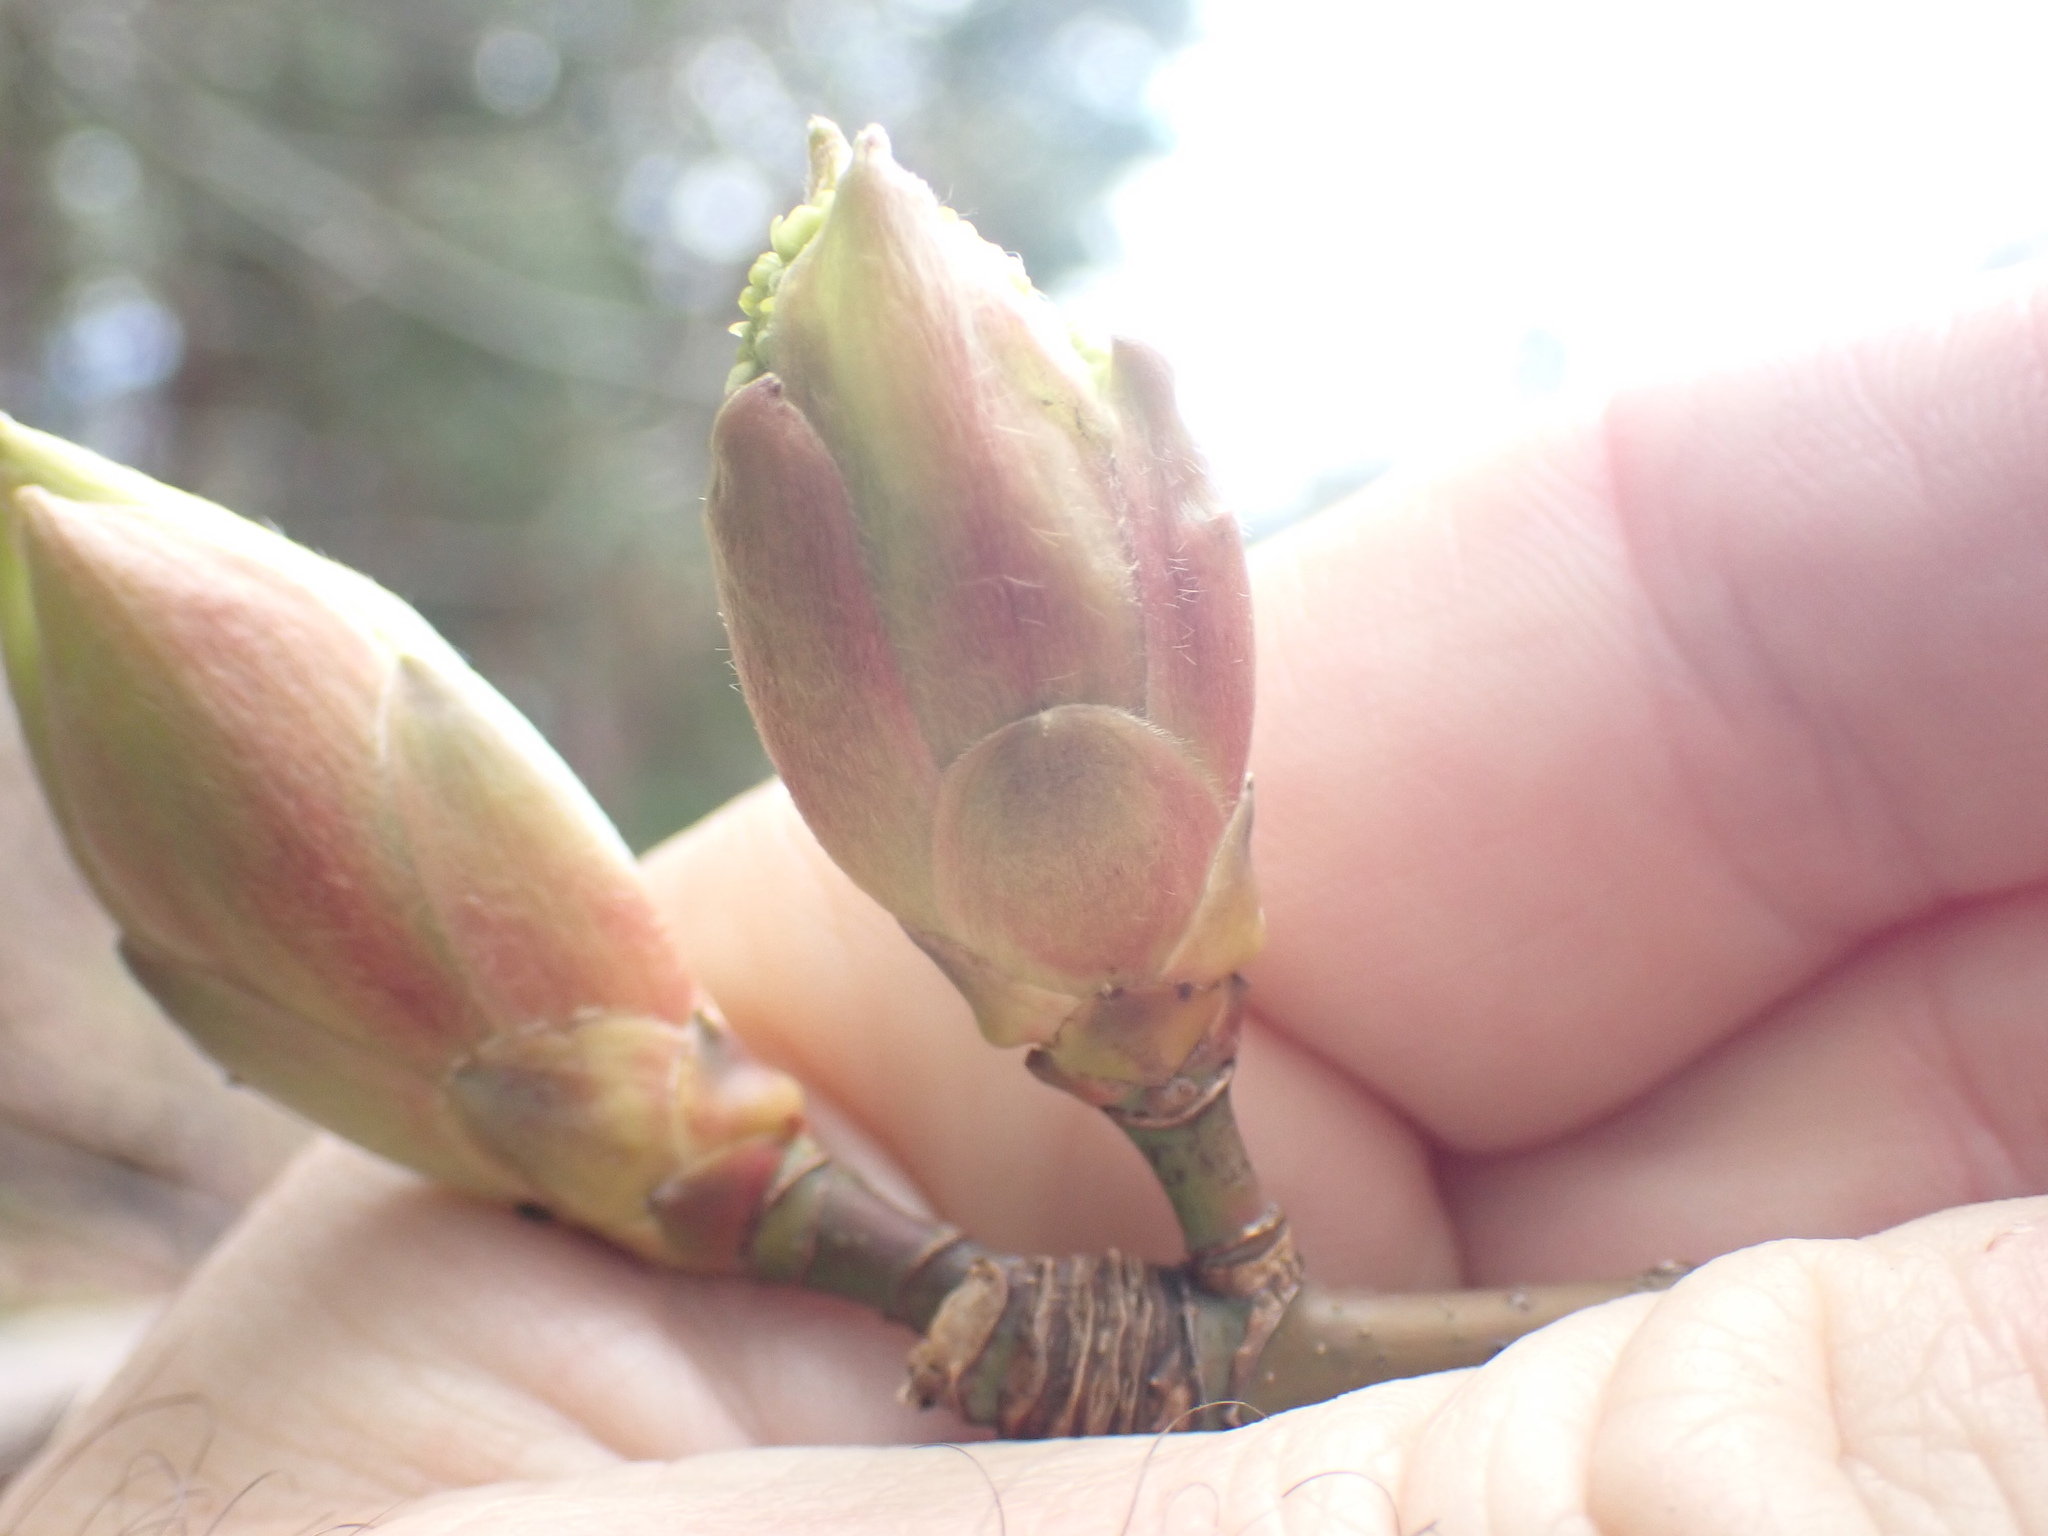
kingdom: Plantae
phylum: Tracheophyta
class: Magnoliopsida
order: Sapindales
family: Sapindaceae
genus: Acer
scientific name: Acer macrophyllum
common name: Oregon maple
